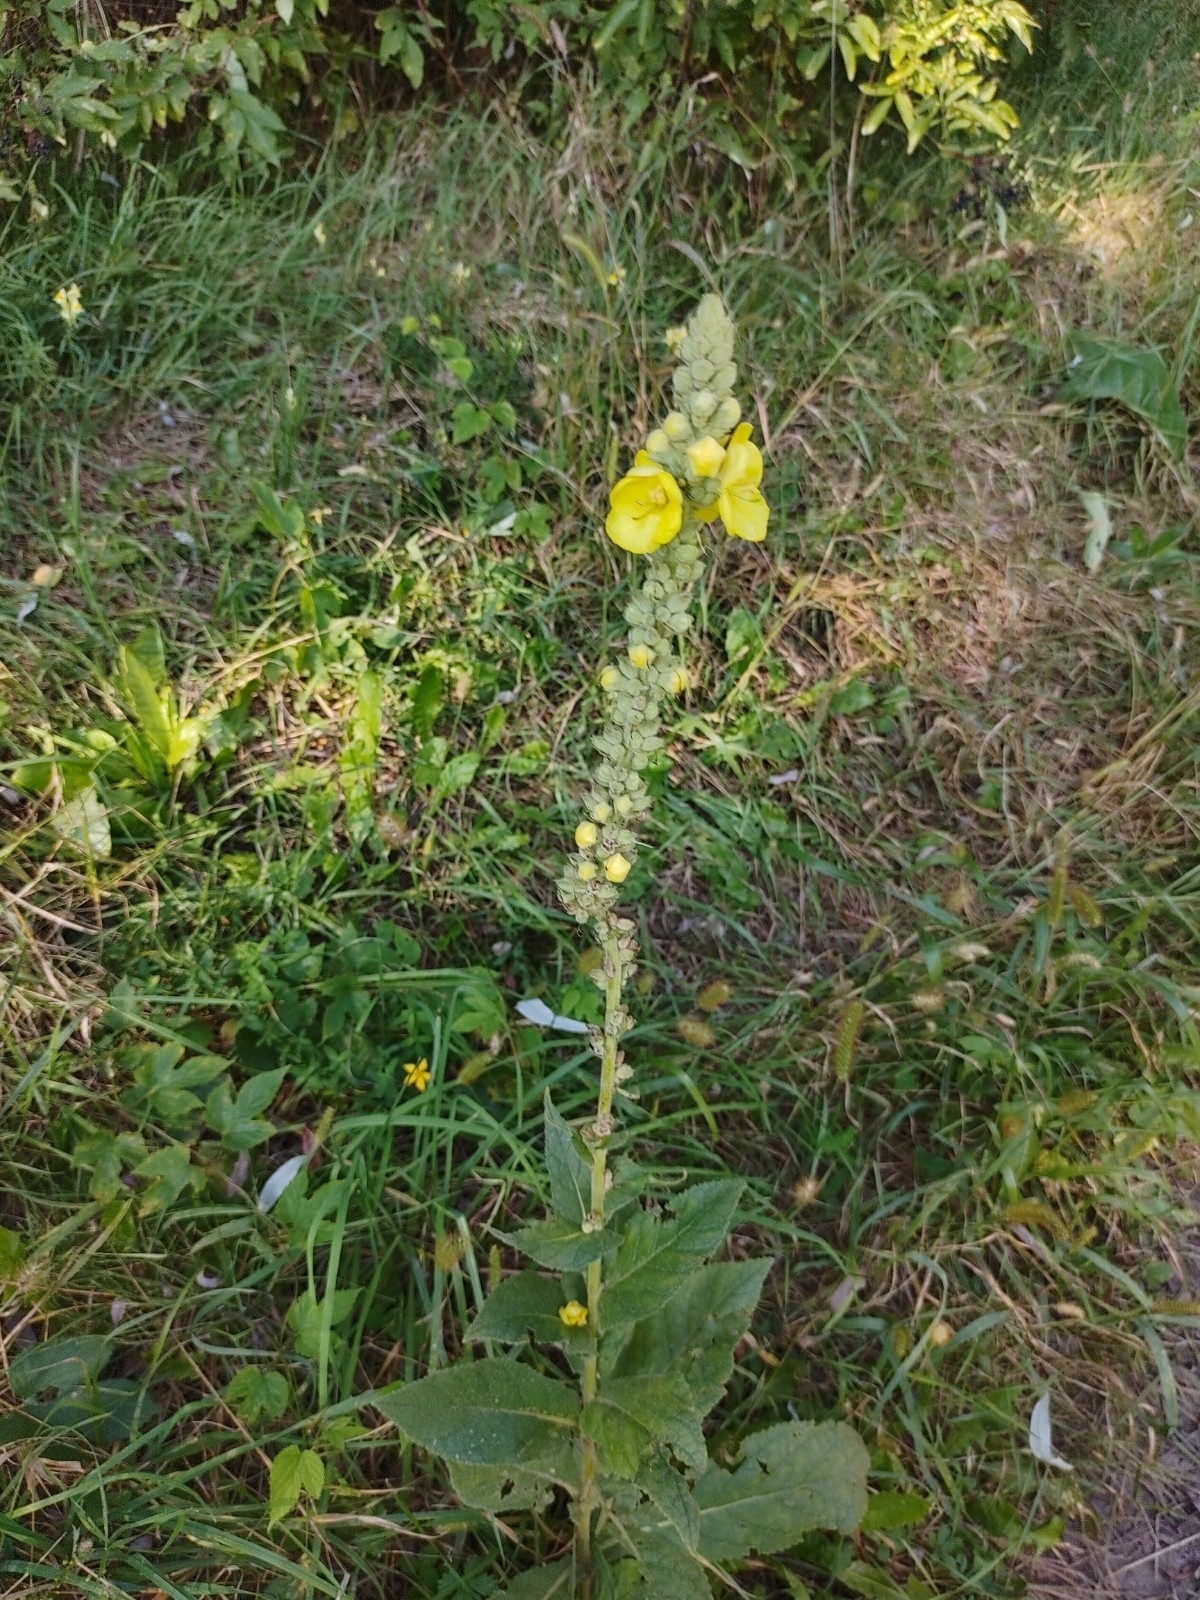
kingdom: Plantae
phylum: Tracheophyta
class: Magnoliopsida
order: Lamiales
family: Scrophulariaceae
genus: Verbascum
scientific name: Verbascum phlomoides
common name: Orange mullein
